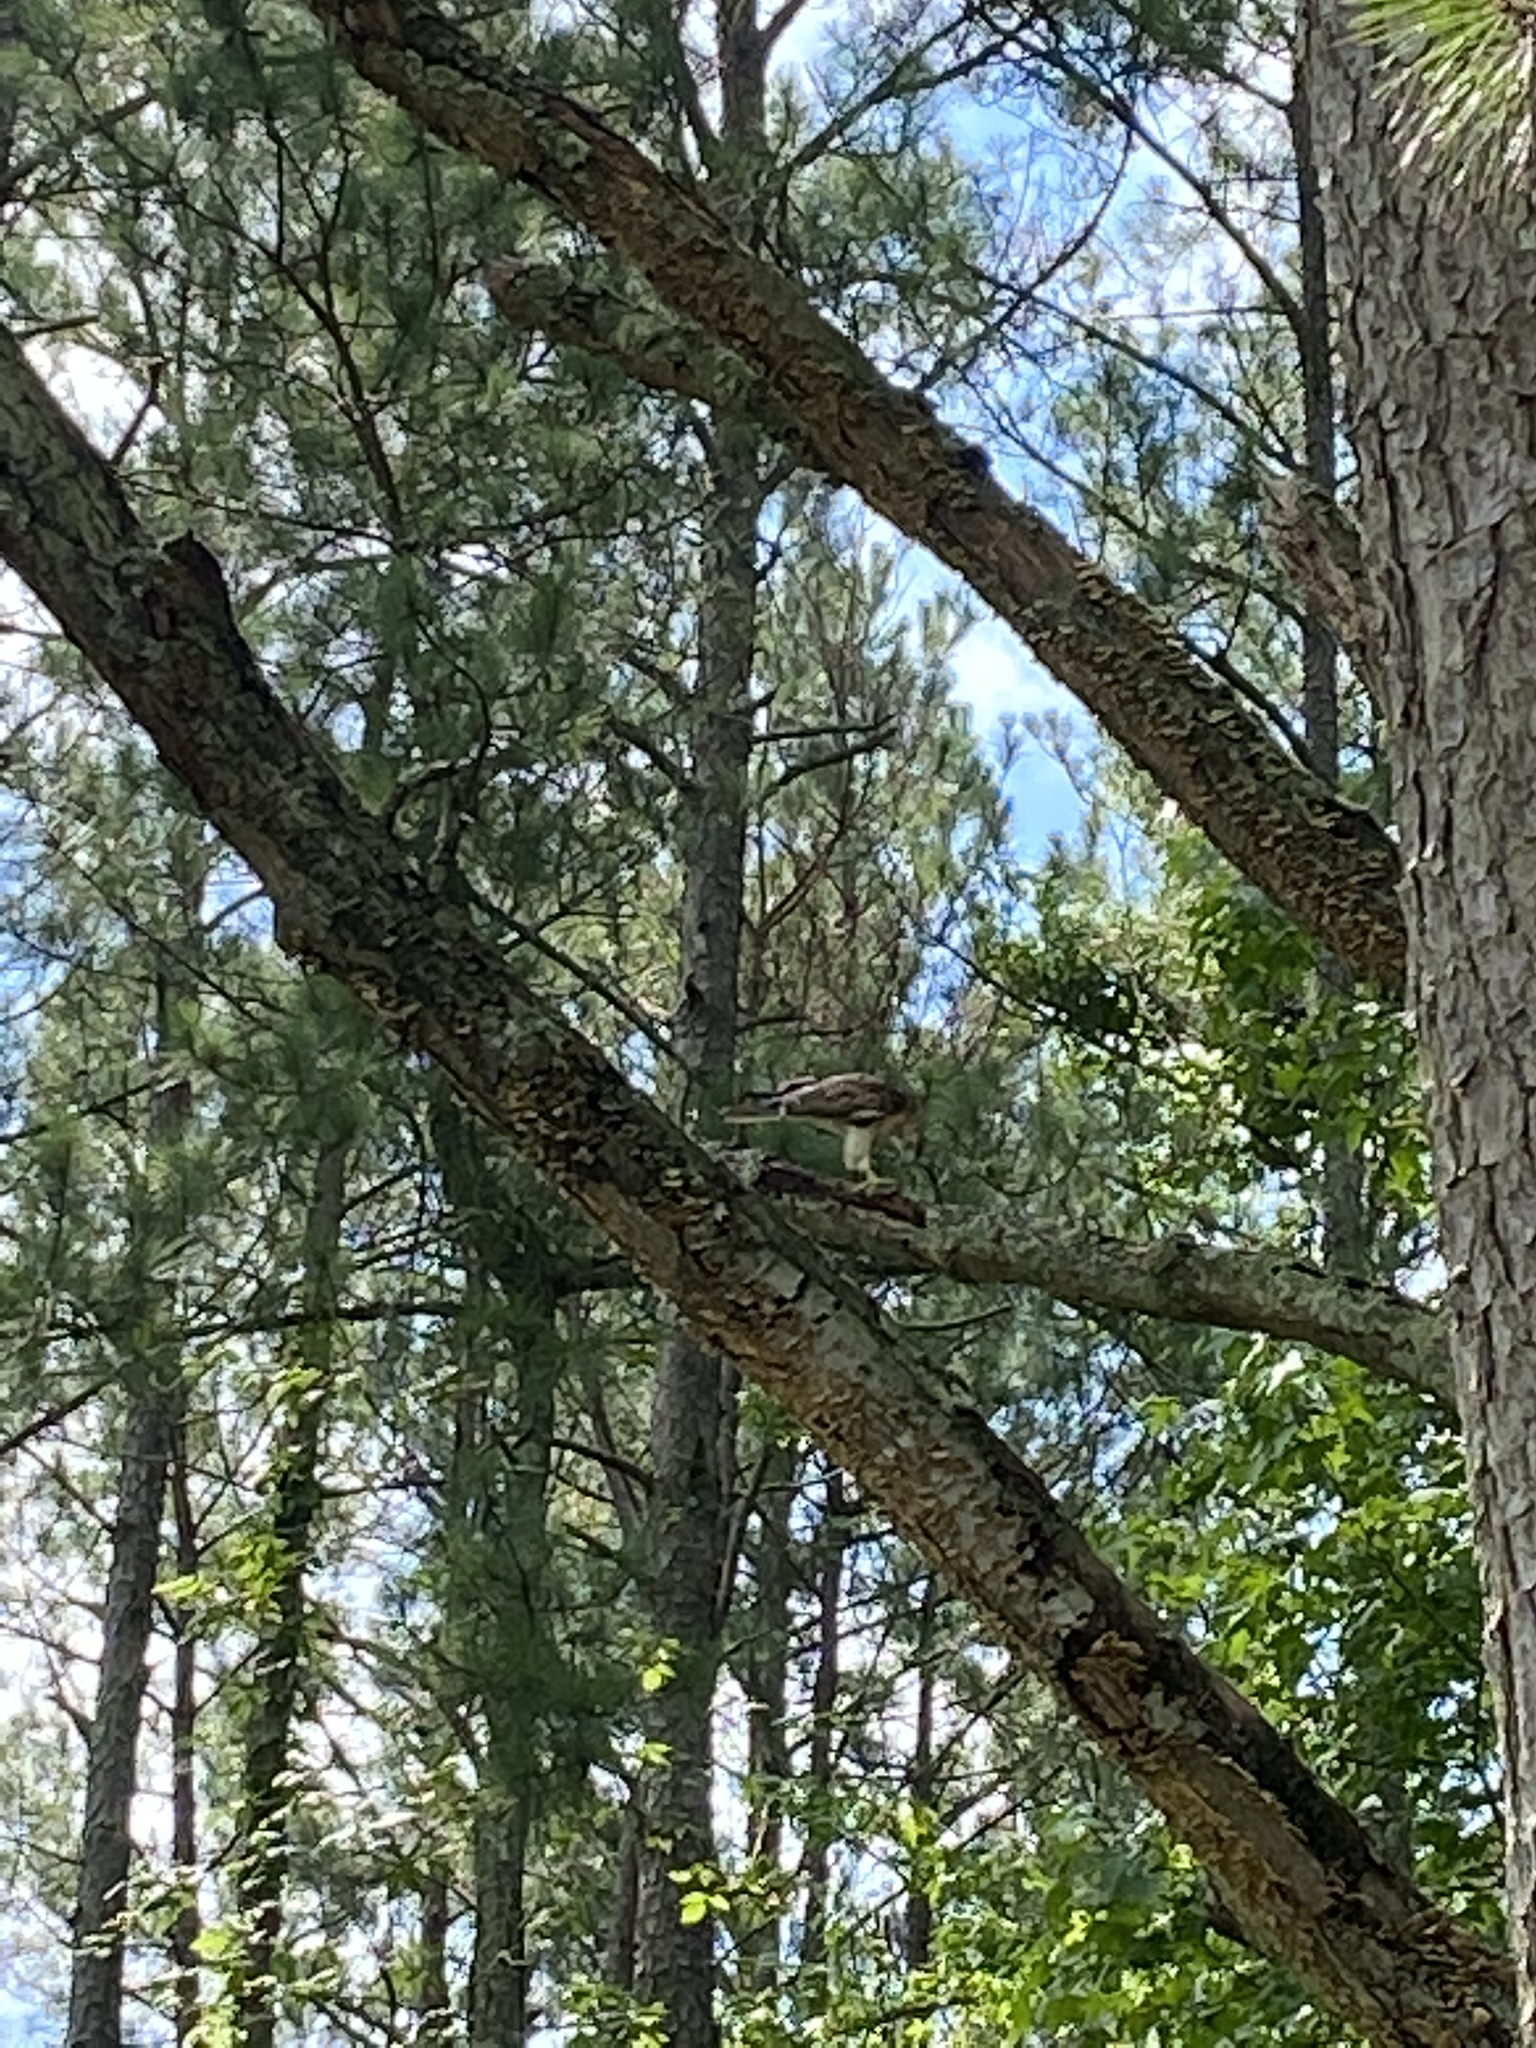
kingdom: Animalia
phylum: Chordata
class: Aves
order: Accipitriformes
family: Accipitridae
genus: Buteo
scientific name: Buteo jamaicensis
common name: Red-tailed hawk
